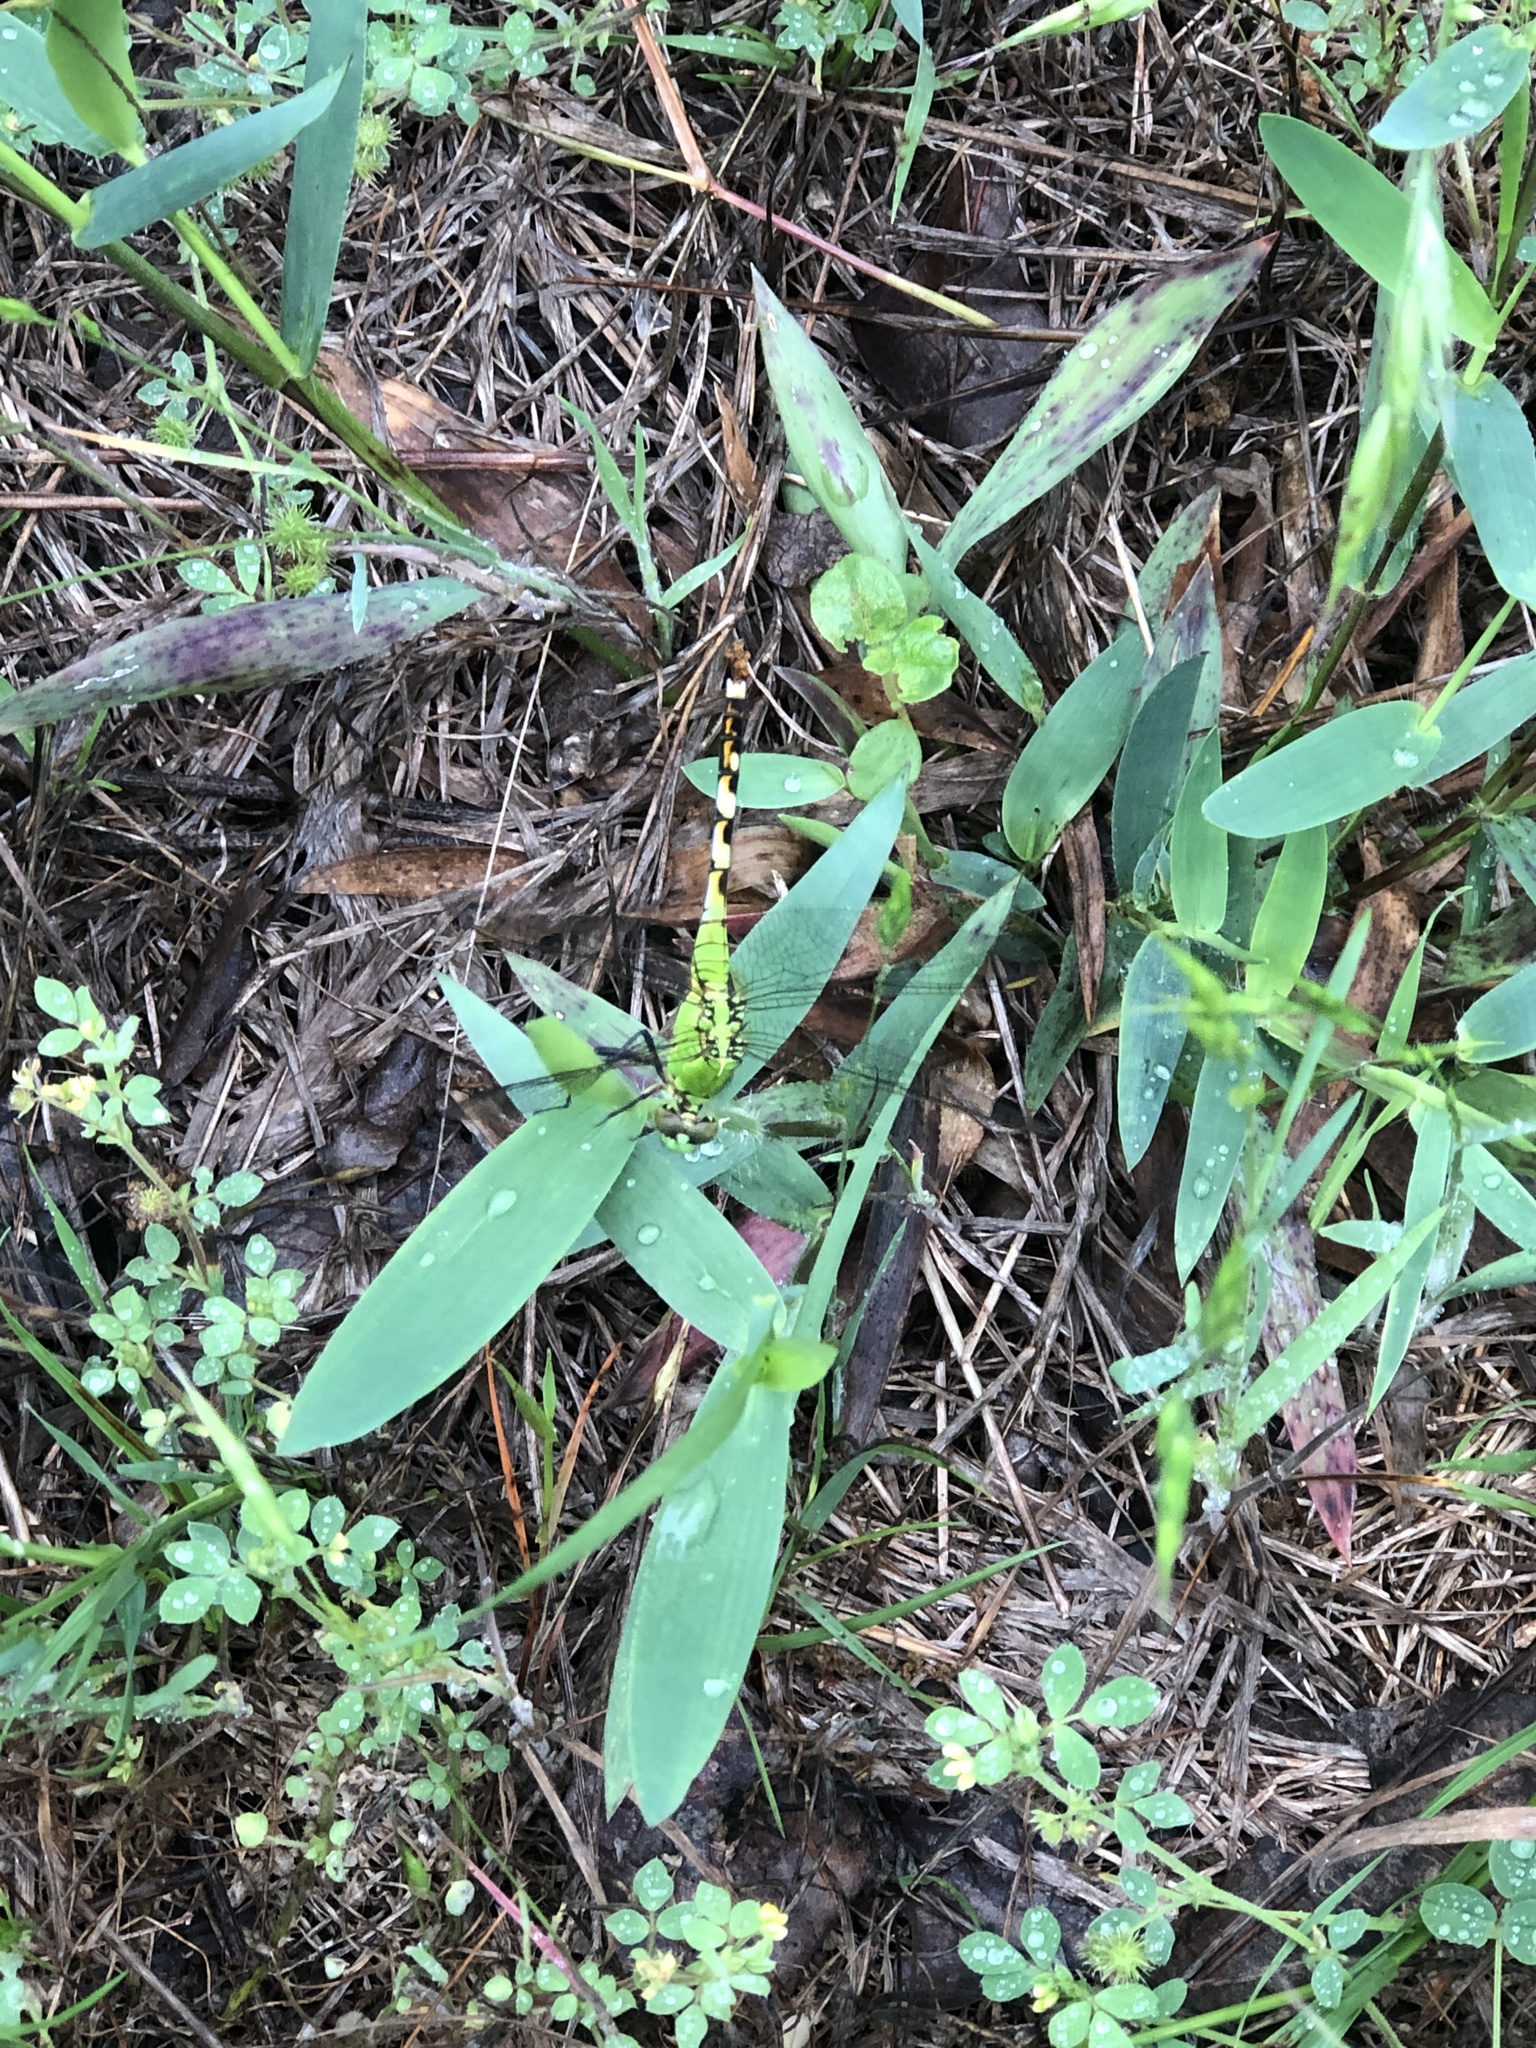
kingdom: Animalia
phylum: Arthropoda
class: Insecta
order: Odonata
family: Libellulidae
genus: Erythemis
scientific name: Erythemis simplicicollis
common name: Eastern pondhawk
